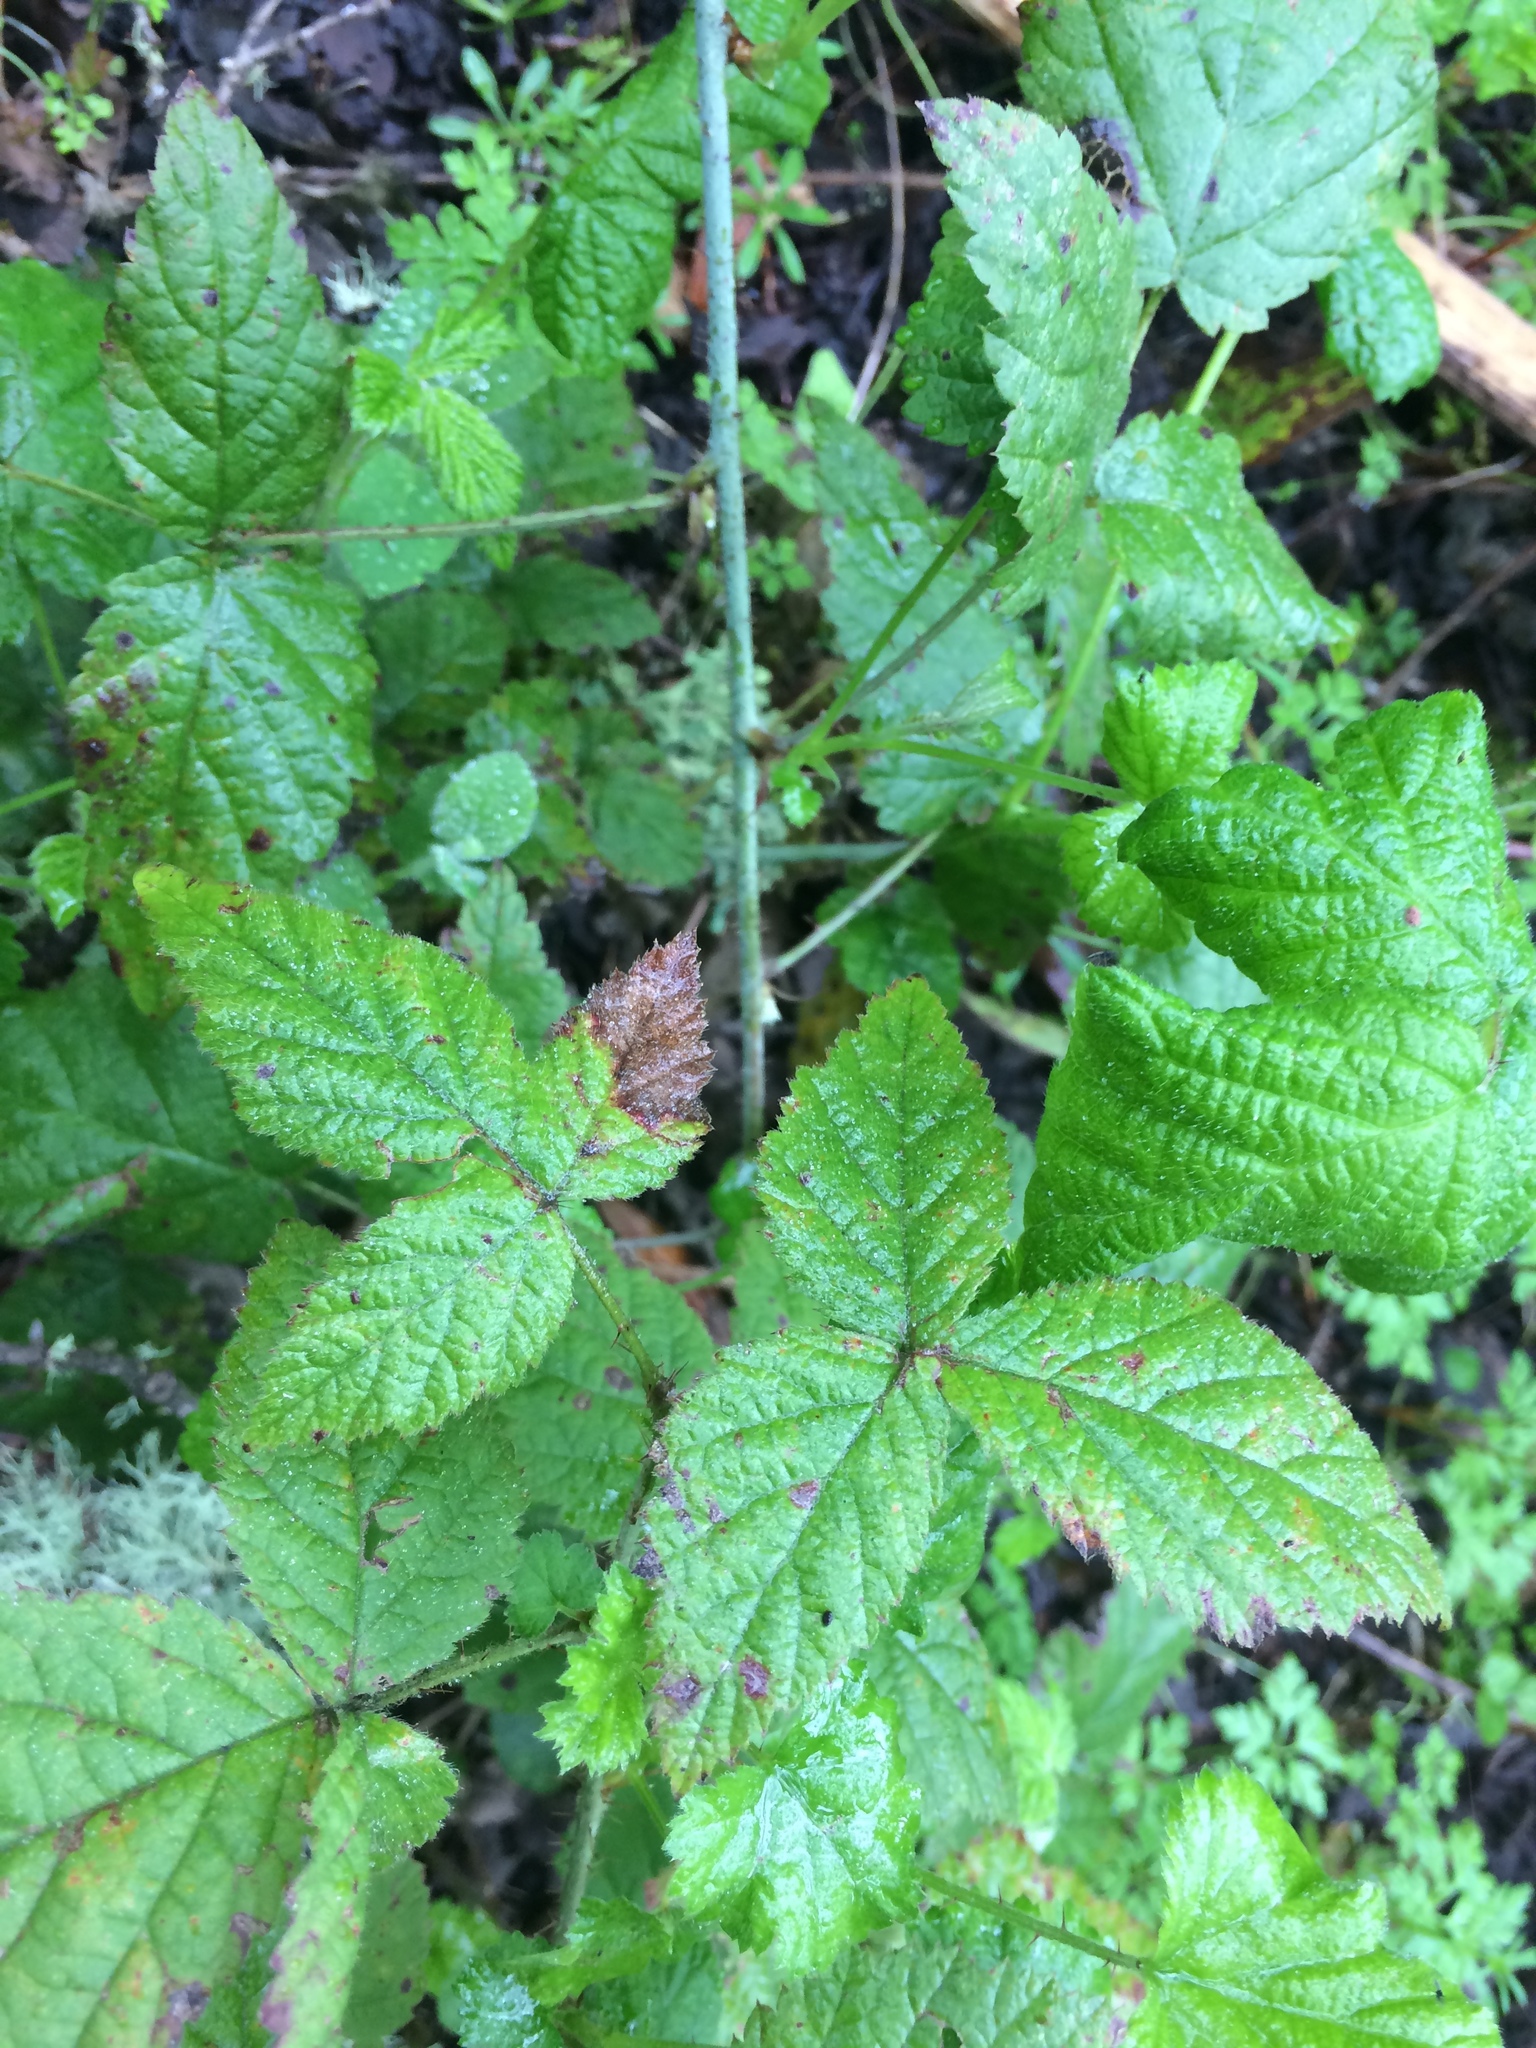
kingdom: Plantae
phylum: Tracheophyta
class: Magnoliopsida
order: Rosales
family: Rosaceae
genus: Rubus
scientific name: Rubus ursinus
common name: Pacific blackberry
